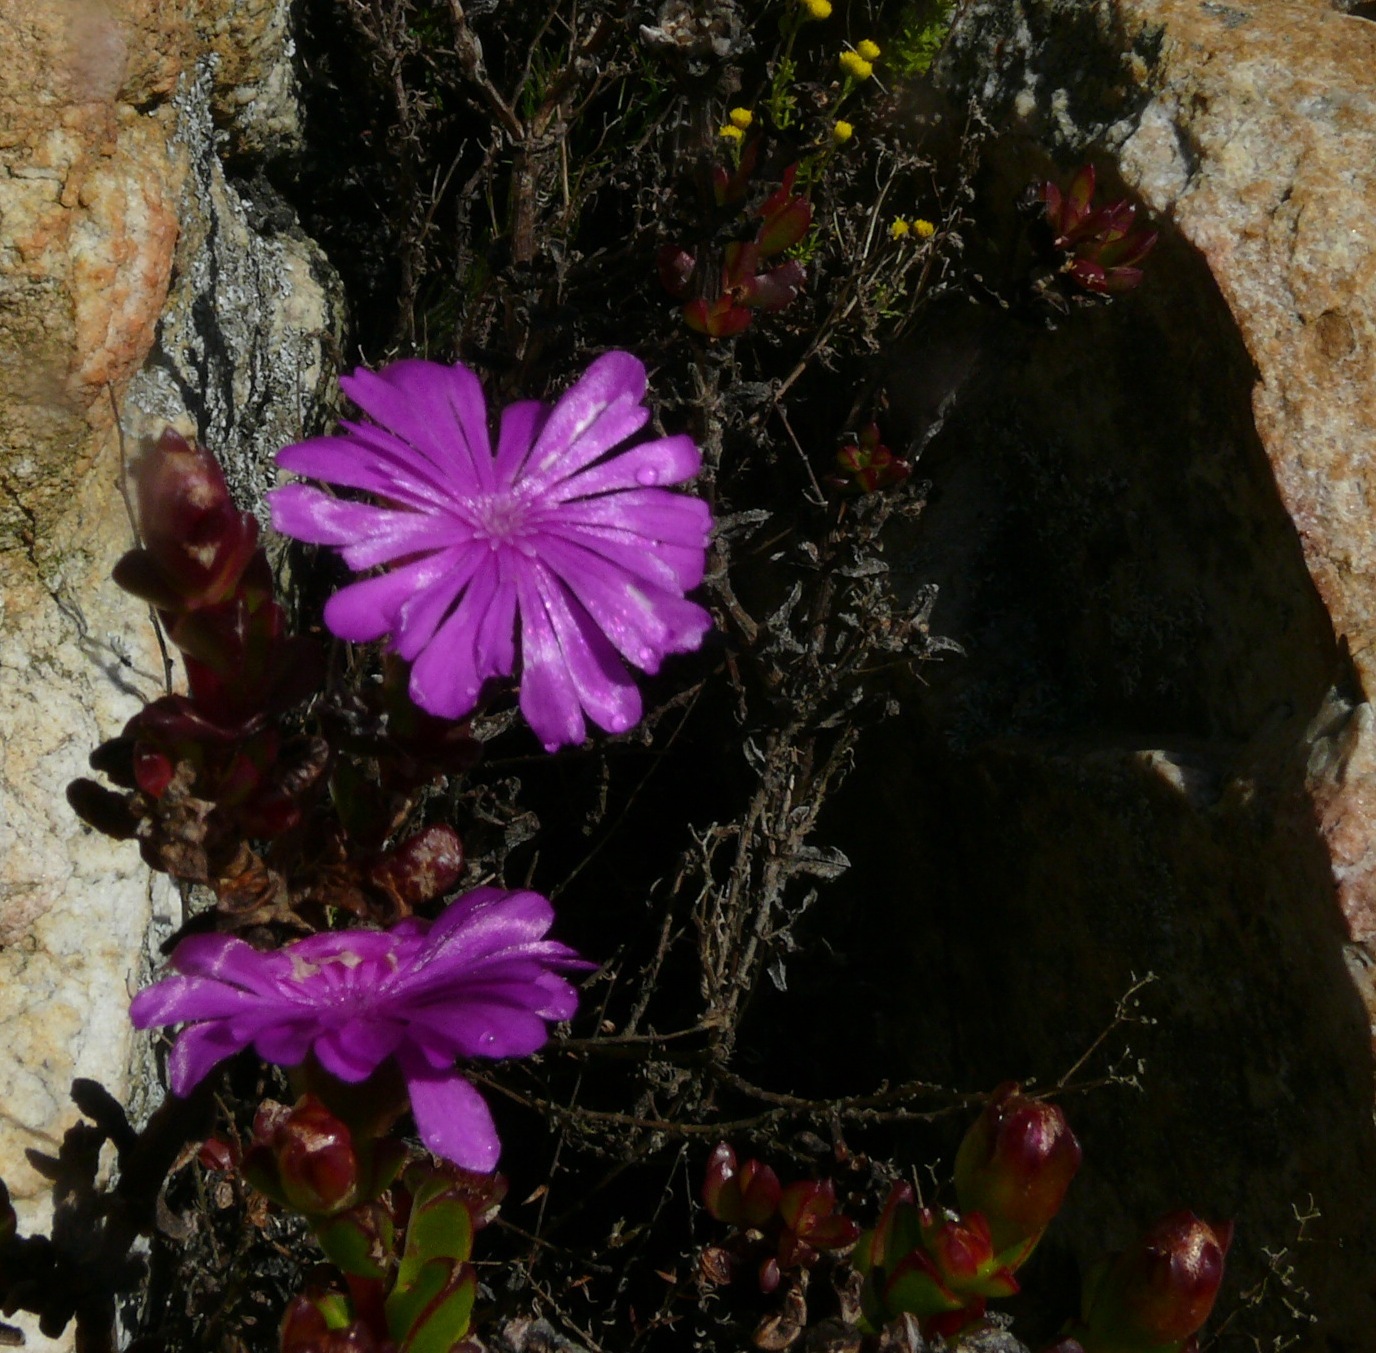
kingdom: Plantae
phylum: Tracheophyta
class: Magnoliopsida
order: Caryophyllales
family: Aizoaceae
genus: Erepsia
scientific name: Erepsia inclaudens
